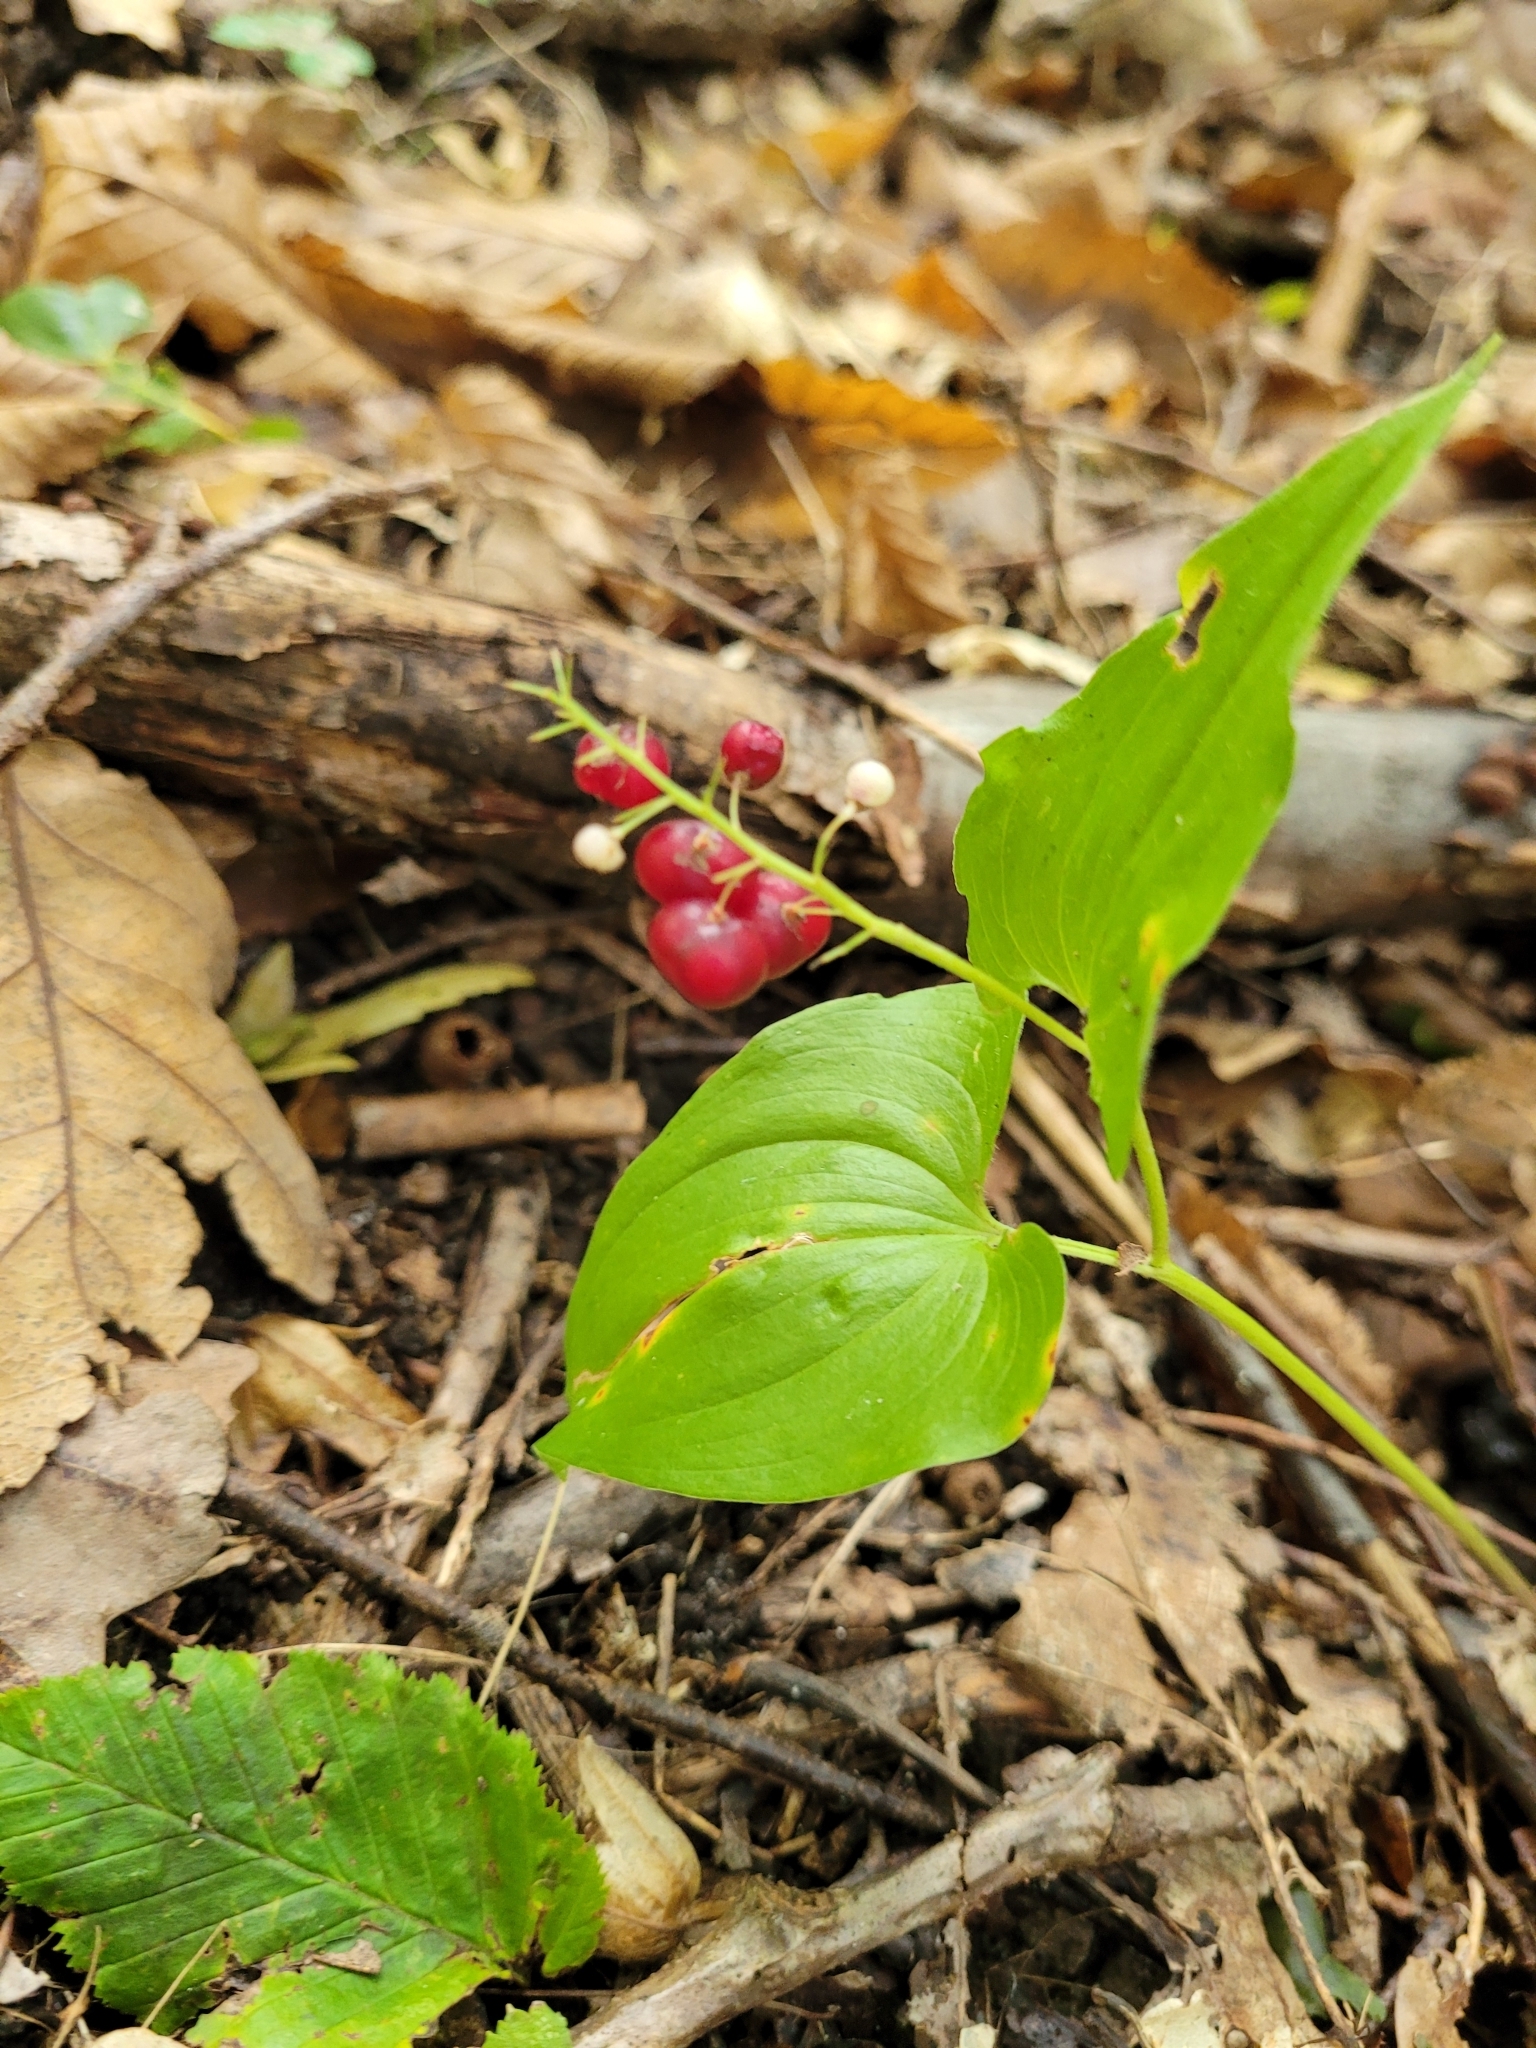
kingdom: Plantae
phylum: Tracheophyta
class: Liliopsida
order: Asparagales
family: Asparagaceae
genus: Maianthemum
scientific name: Maianthemum bifolium
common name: May lily
